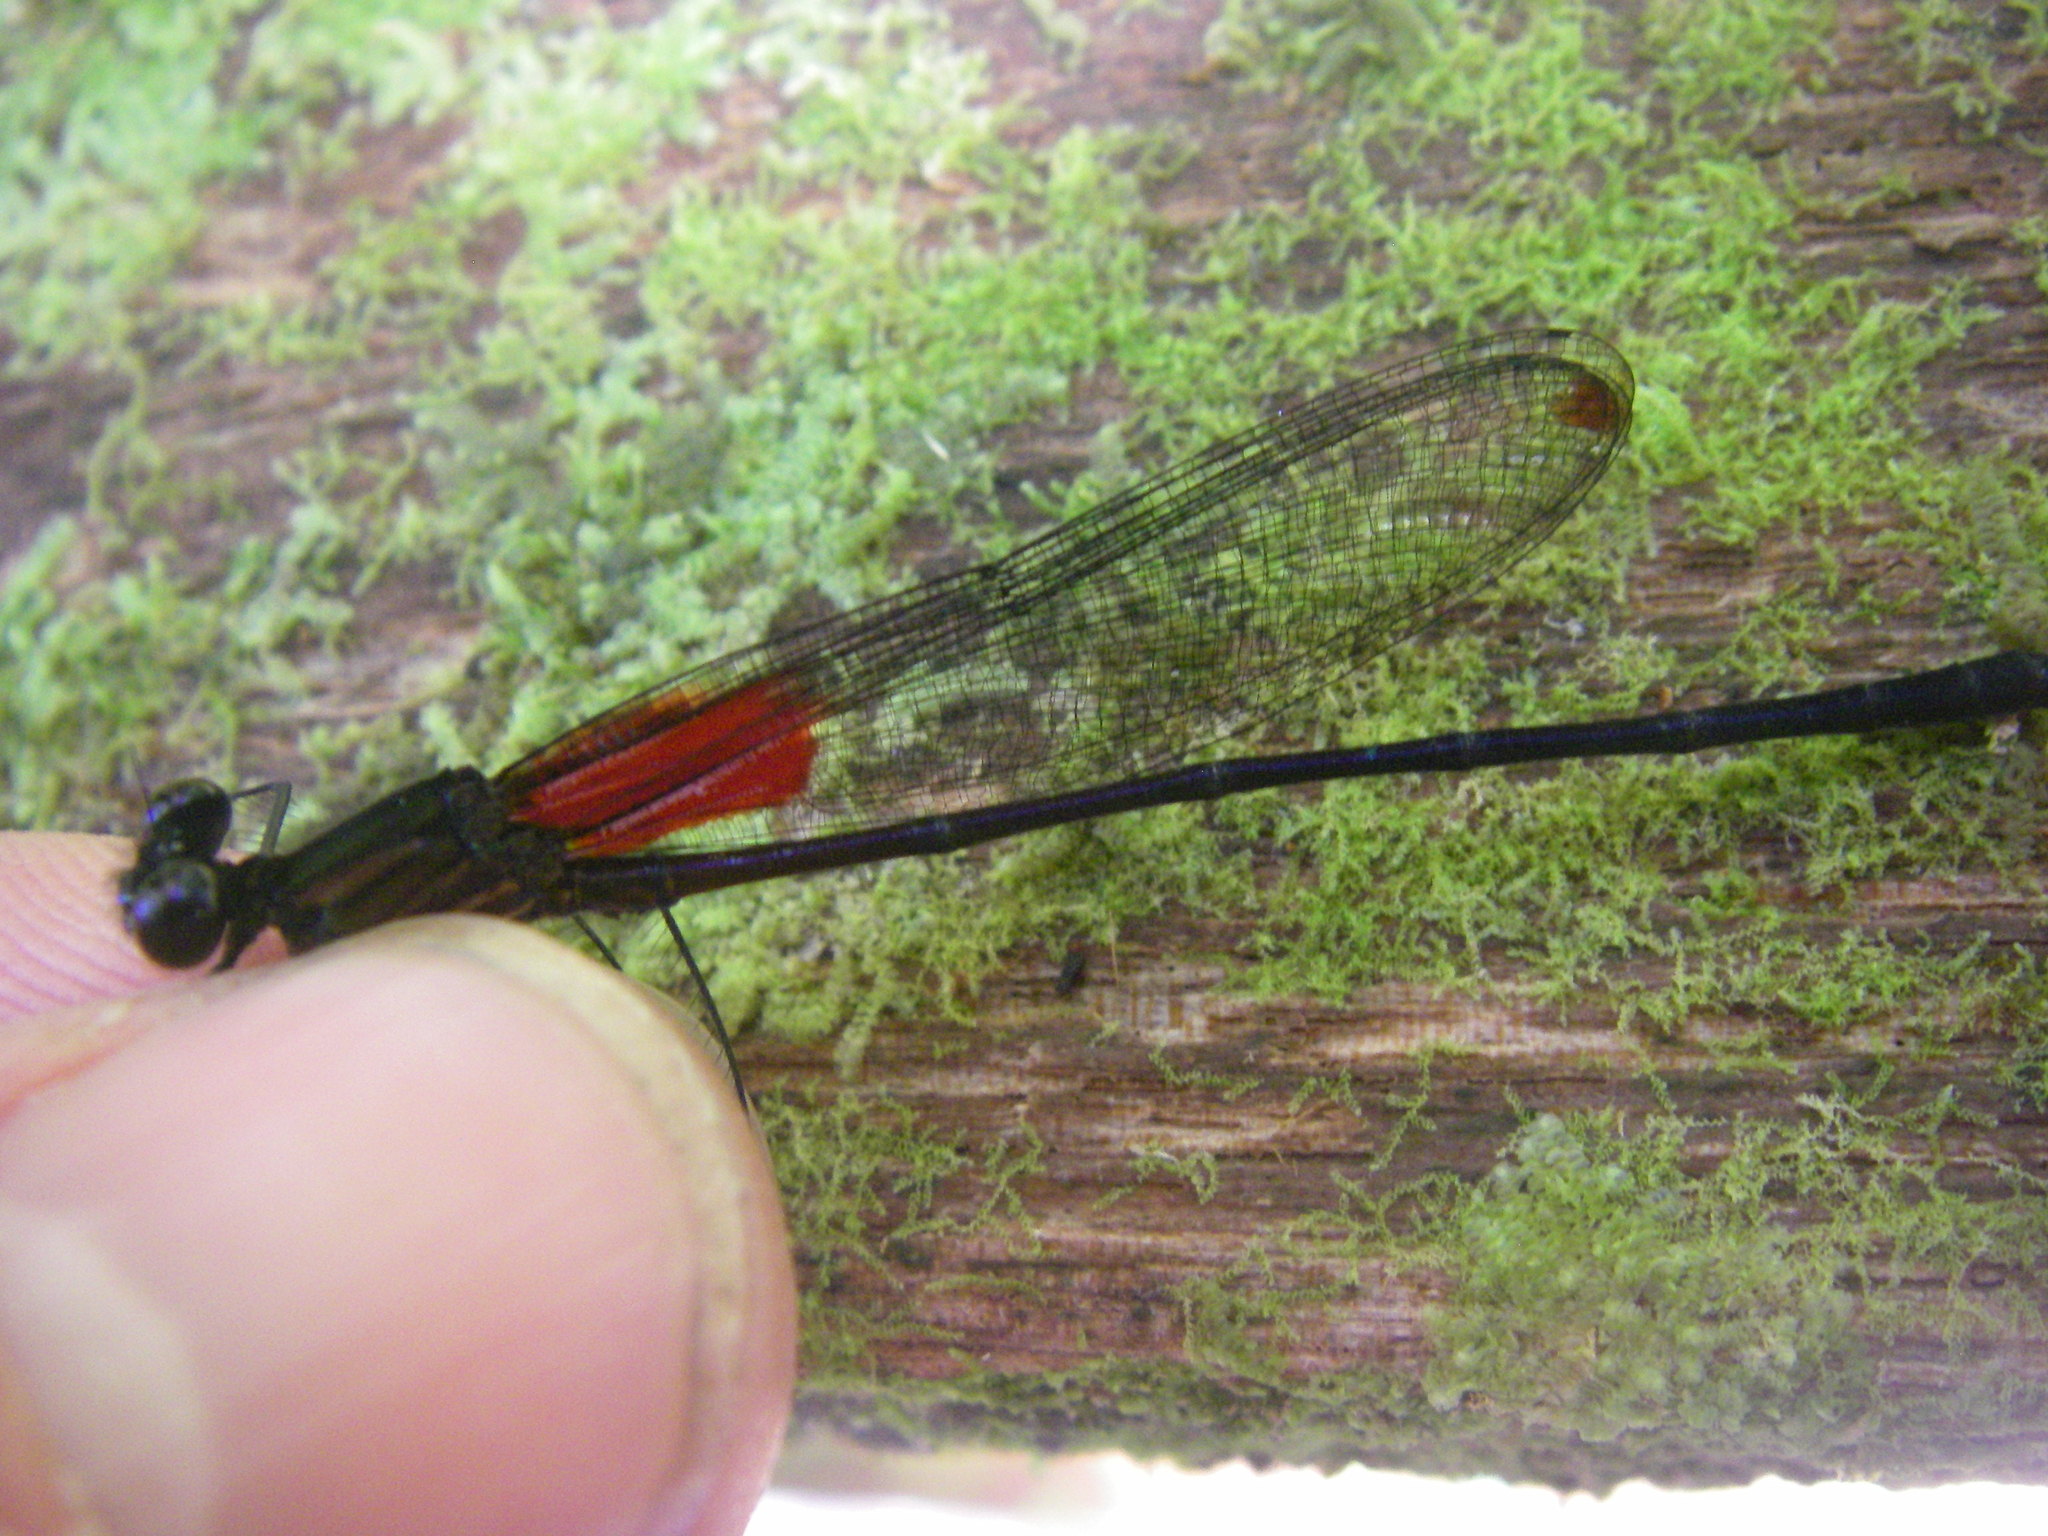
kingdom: Animalia
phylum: Arthropoda
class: Insecta
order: Odonata
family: Calopterygidae
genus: Hetaerina
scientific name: Hetaerina occisa
